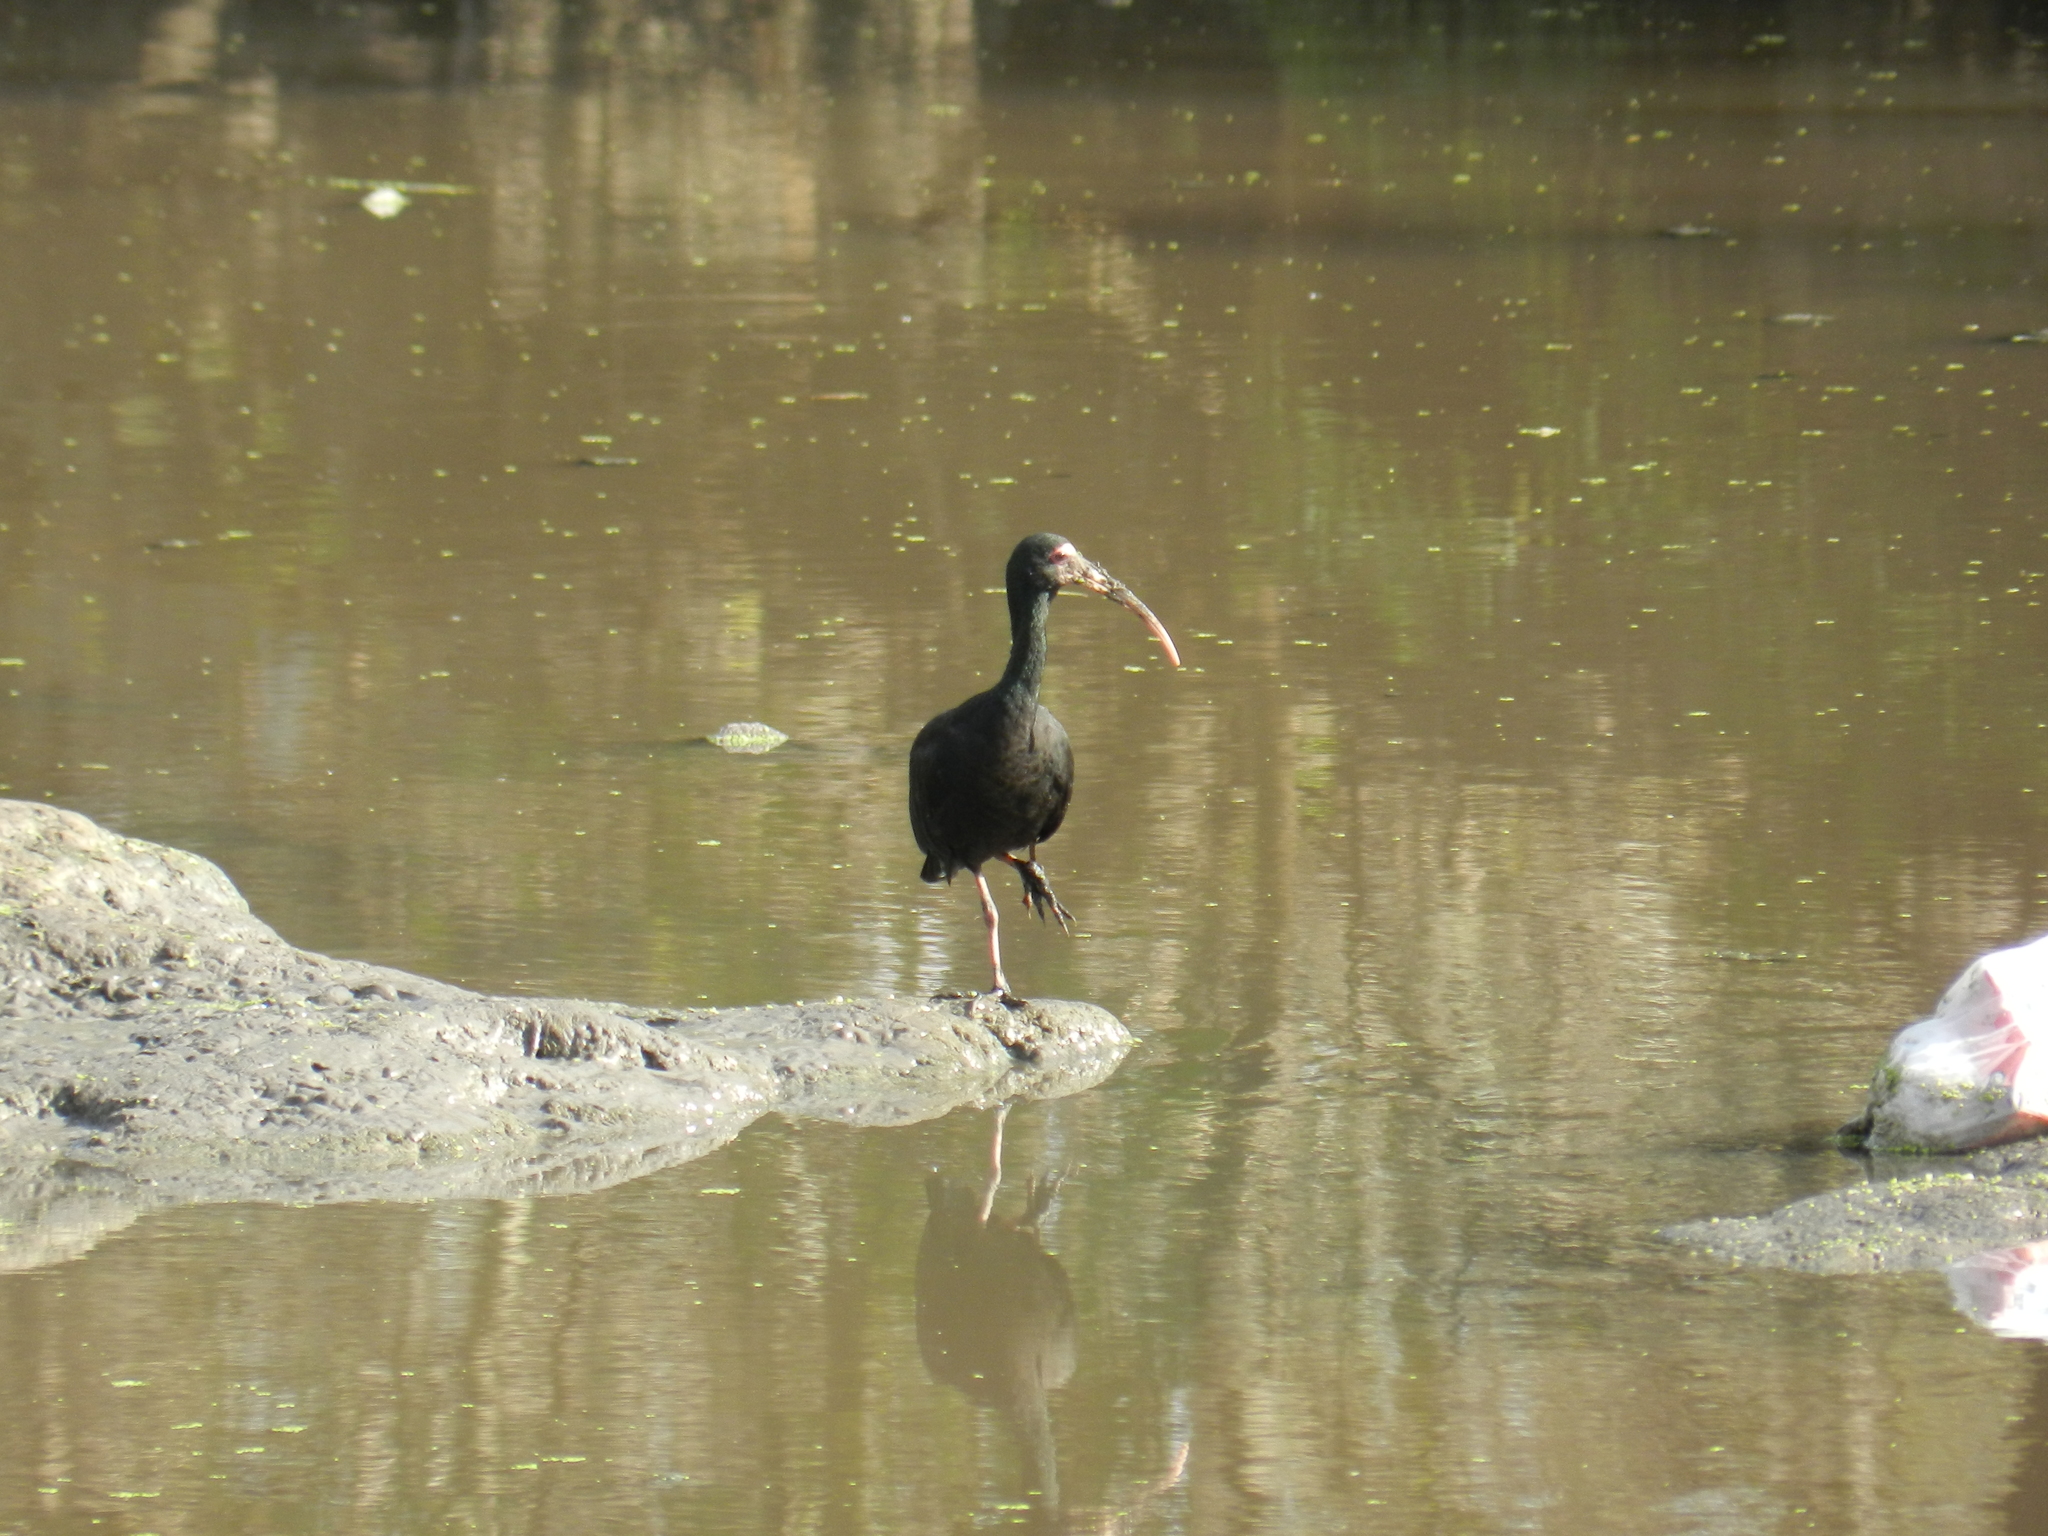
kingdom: Animalia
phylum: Chordata
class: Aves
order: Pelecaniformes
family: Threskiornithidae
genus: Phimosus
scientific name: Phimosus infuscatus
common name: Bare-faced ibis
